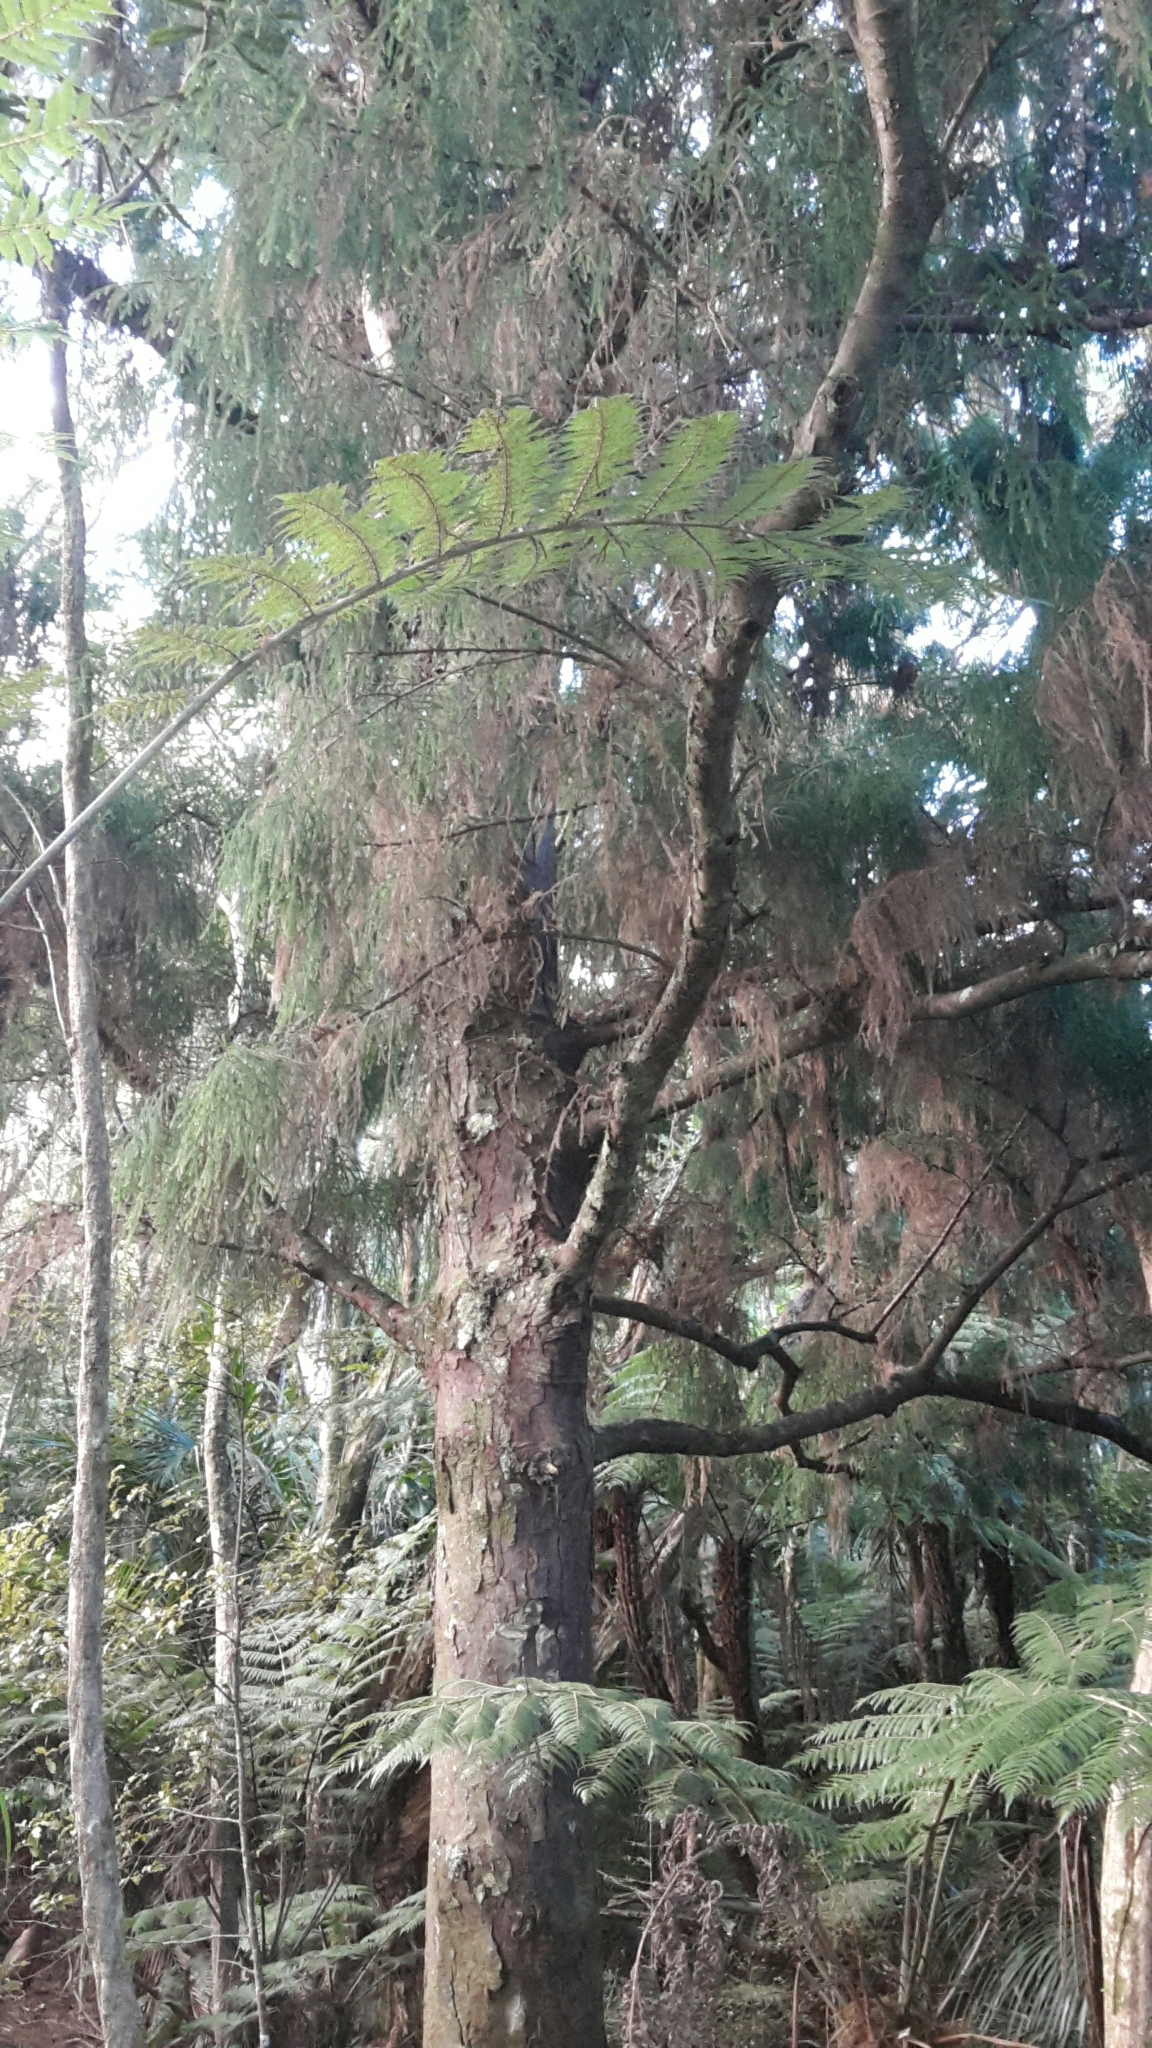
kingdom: Plantae
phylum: Tracheophyta
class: Pinopsida
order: Pinales
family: Podocarpaceae
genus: Dacrydium
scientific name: Dacrydium cupressinum
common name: Red pine
